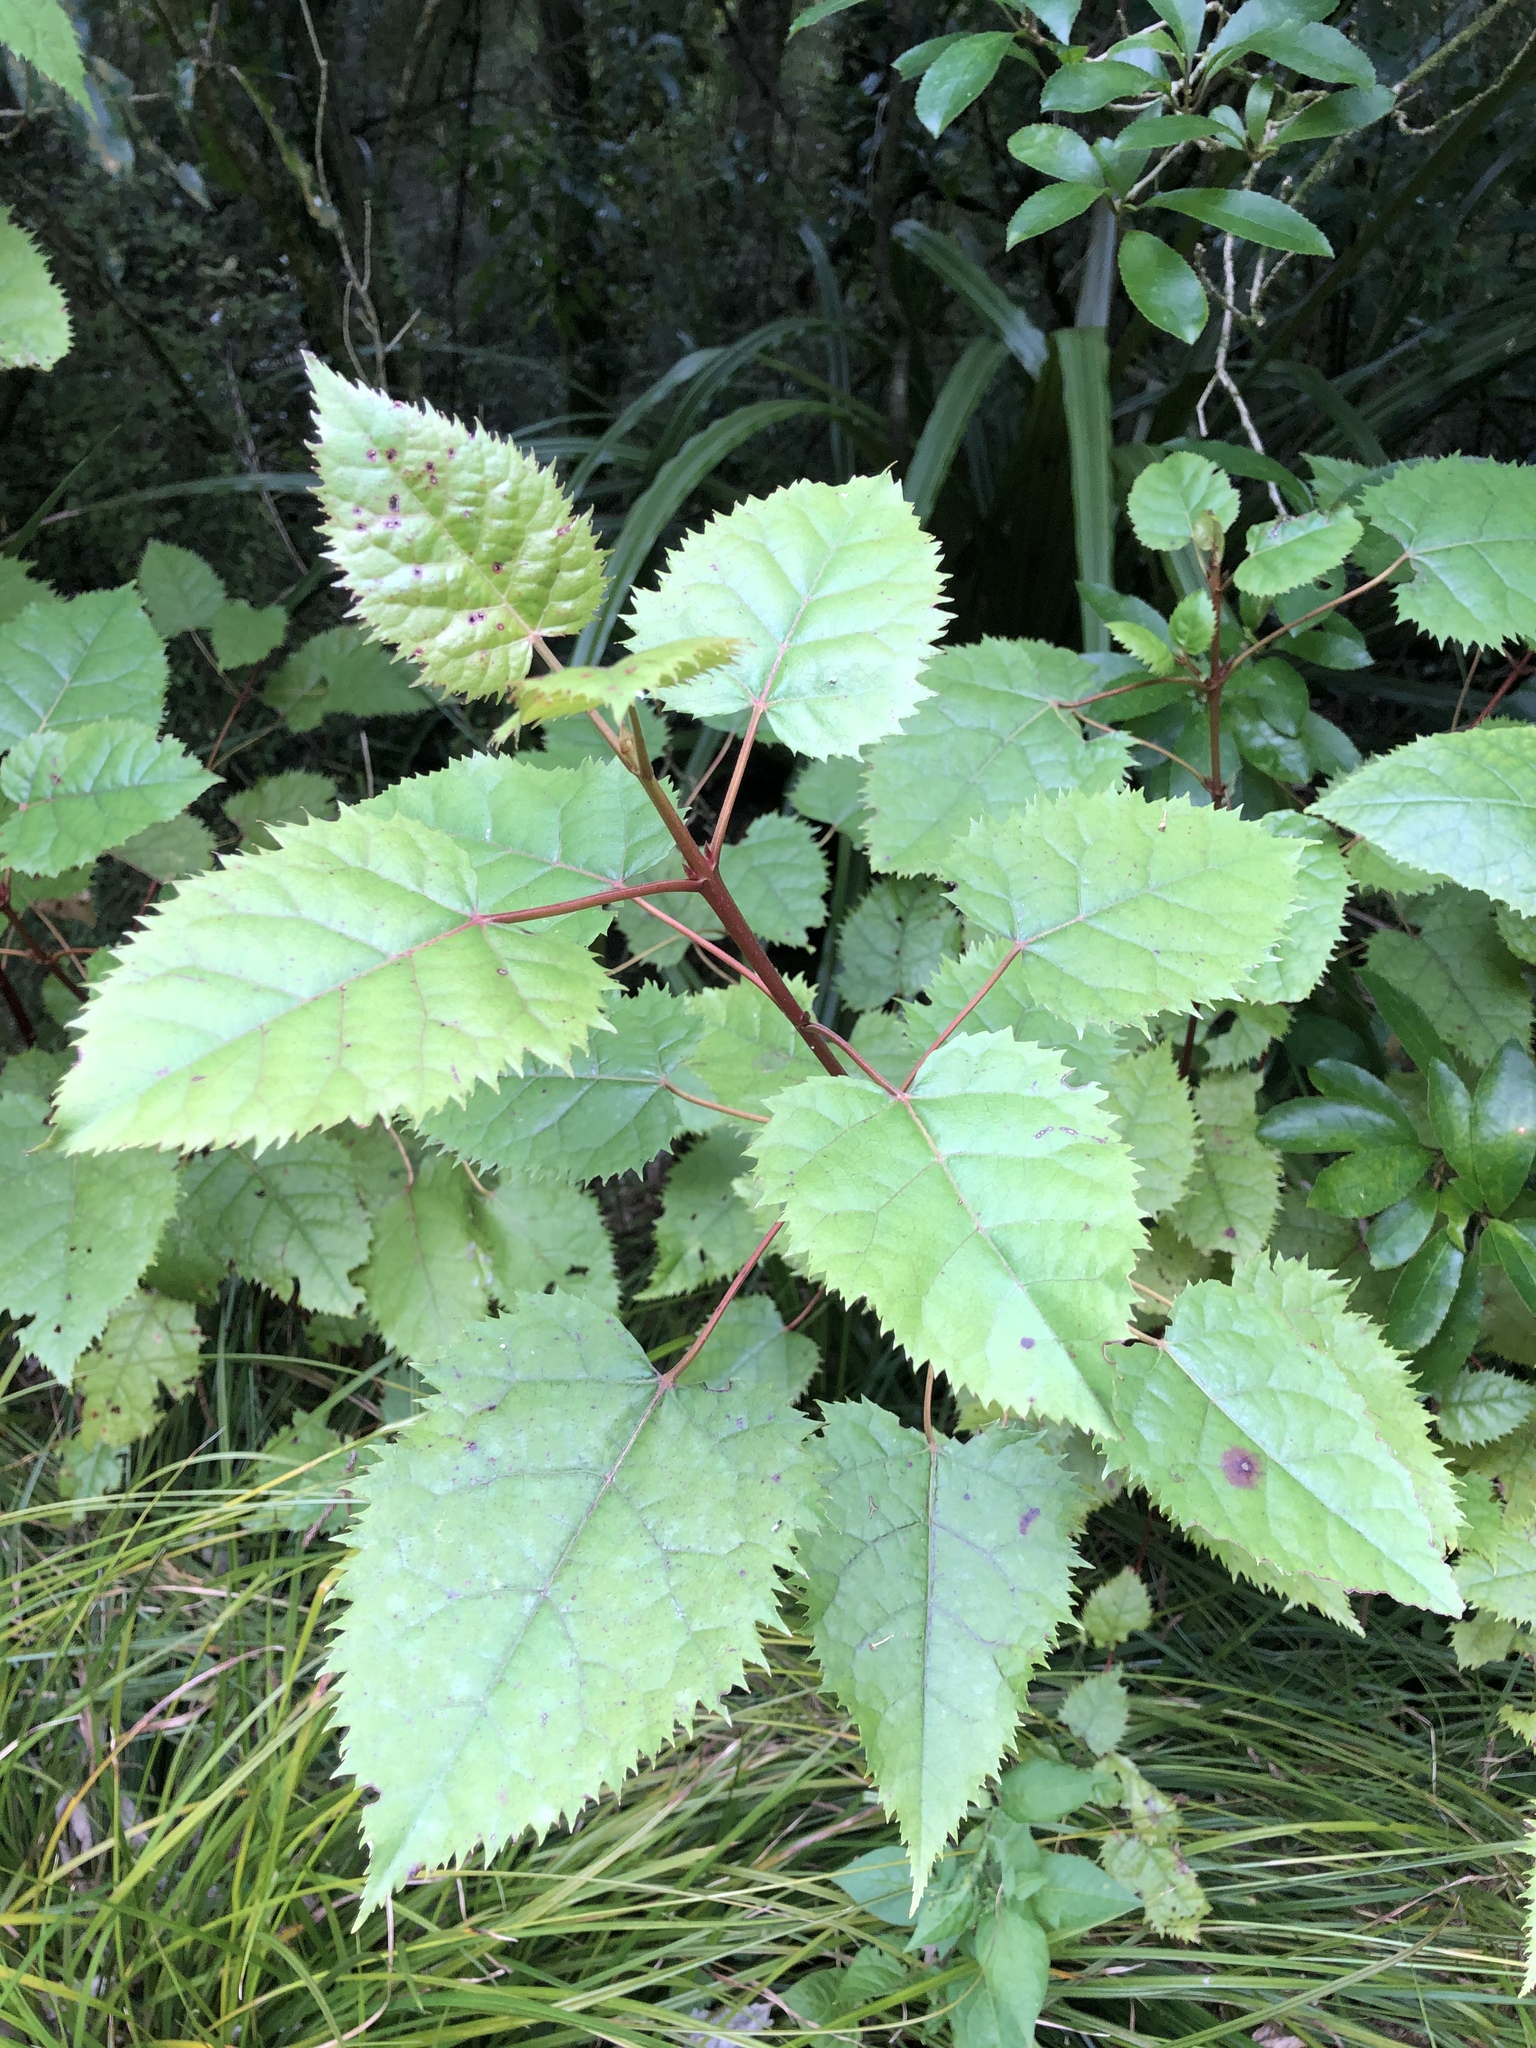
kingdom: Plantae
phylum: Tracheophyta
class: Magnoliopsida
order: Oxalidales
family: Elaeocarpaceae
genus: Aristotelia
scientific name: Aristotelia serrata
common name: New zealand wineberry
